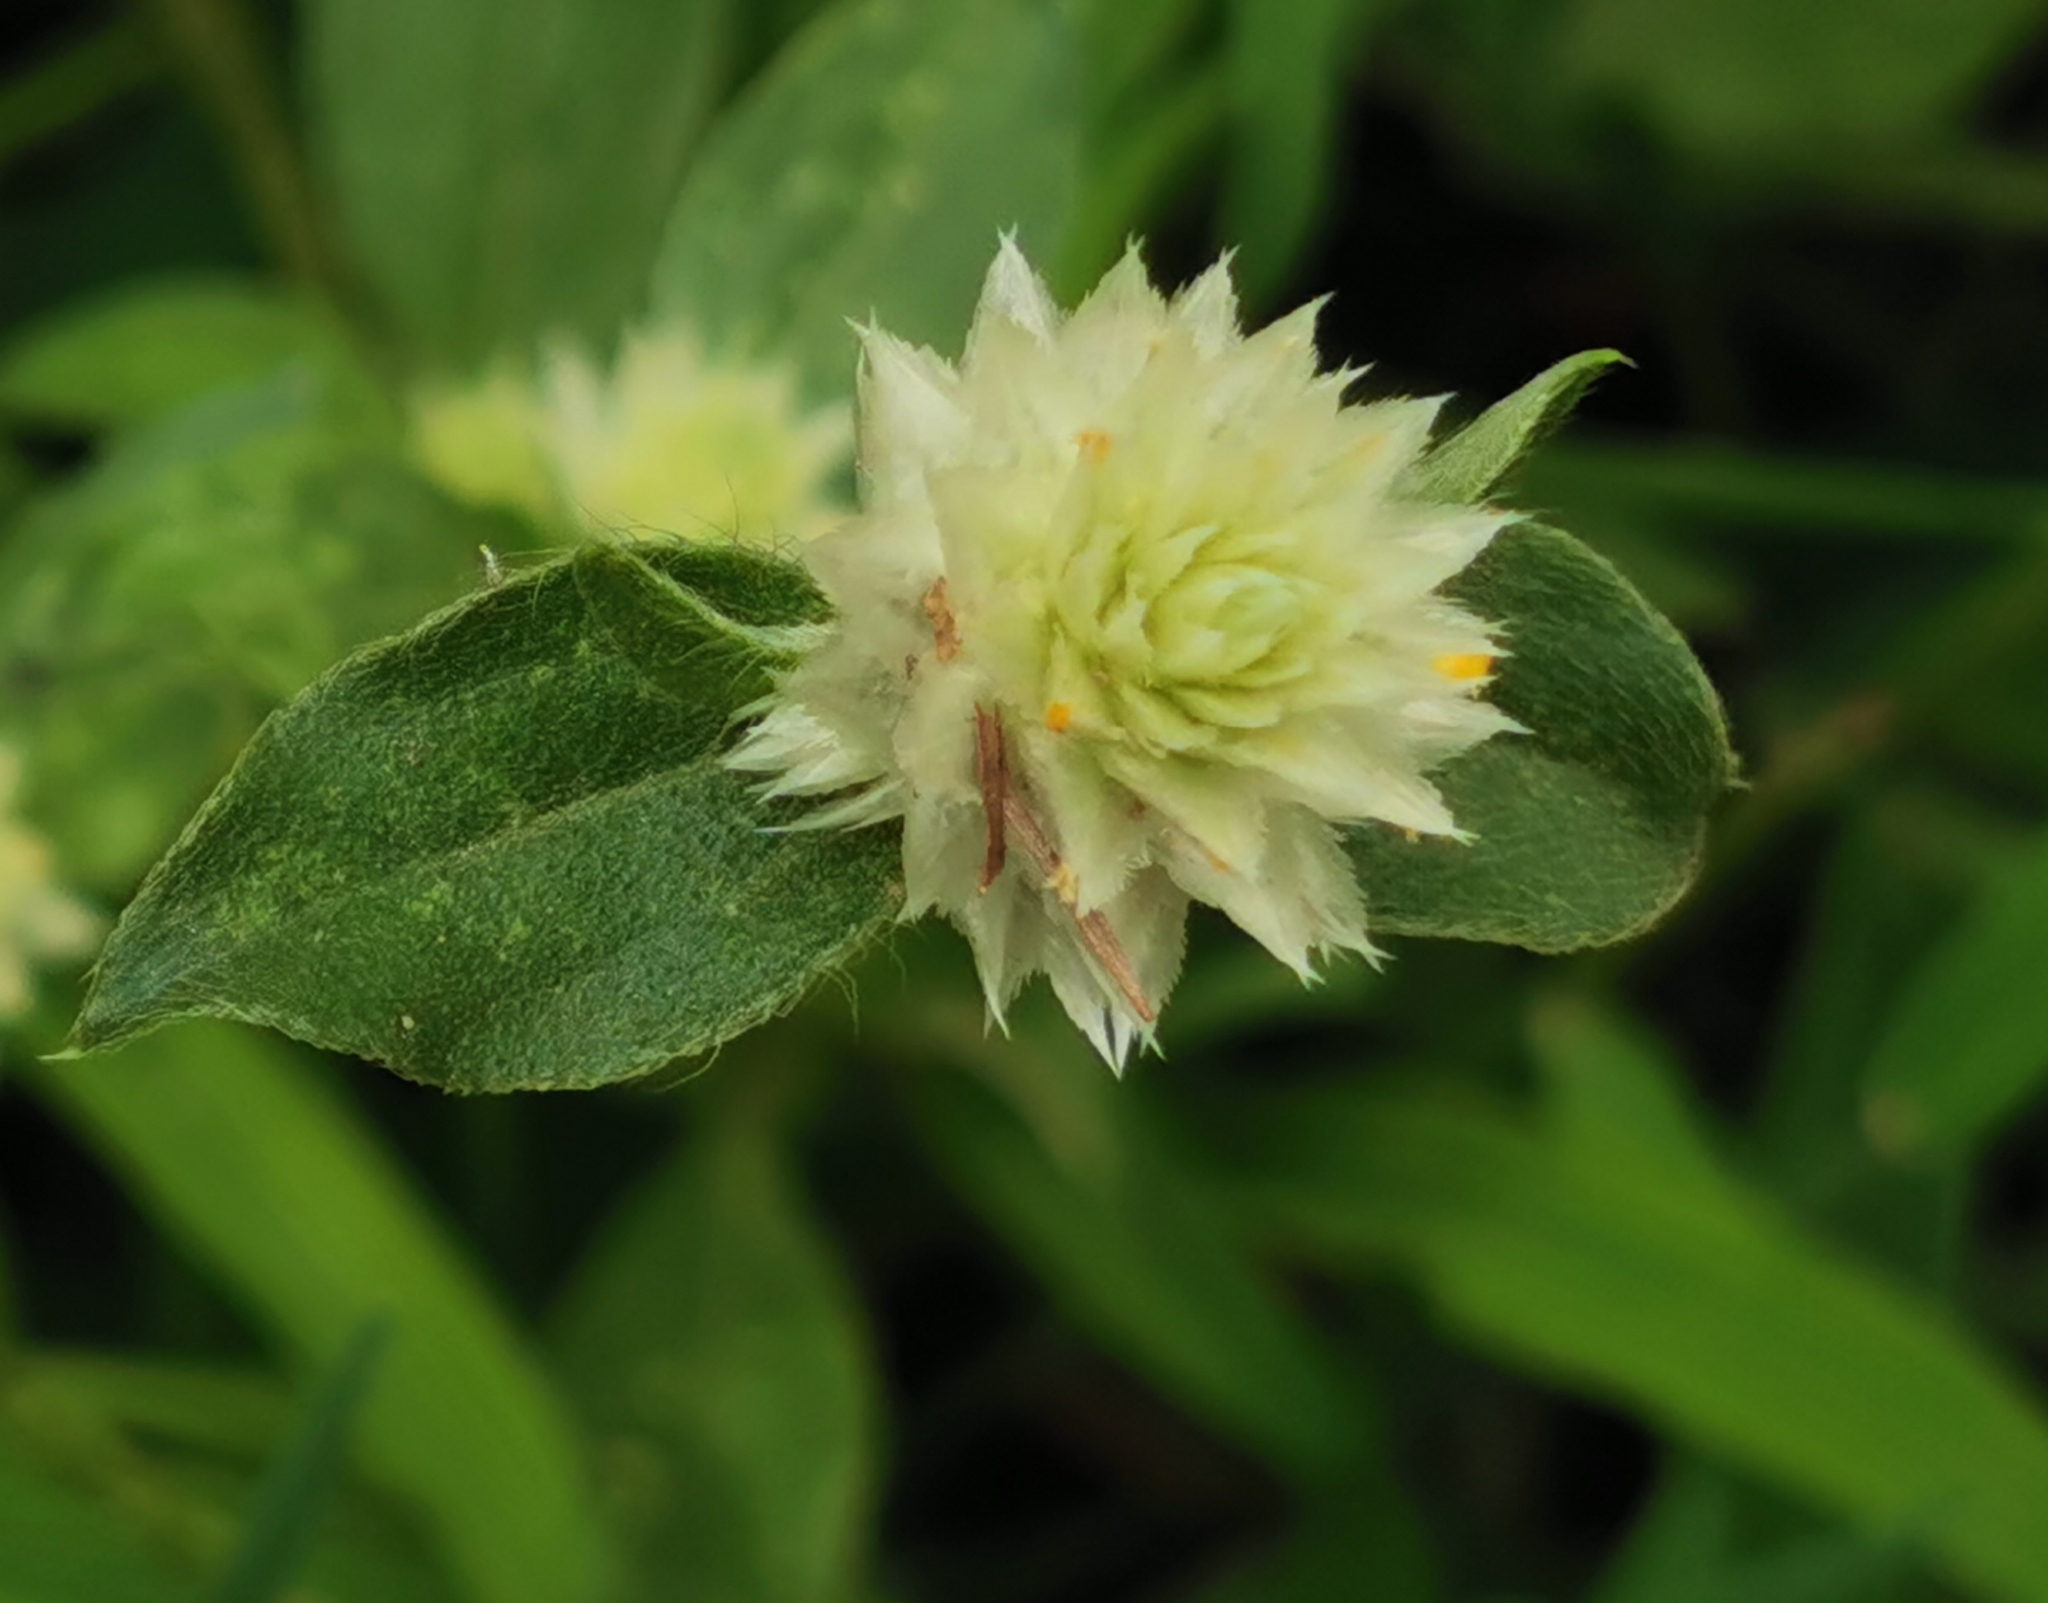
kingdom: Plantae
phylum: Tracheophyta
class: Magnoliopsida
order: Caryophyllales
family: Amaranthaceae
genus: Gomphrena
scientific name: Gomphrena serrata
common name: Arrasa con todo
